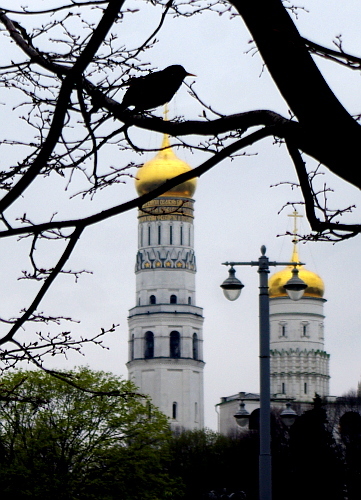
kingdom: Animalia
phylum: Chordata
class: Aves
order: Passeriformes
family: Sturnidae
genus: Sturnus
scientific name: Sturnus vulgaris
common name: Common starling
